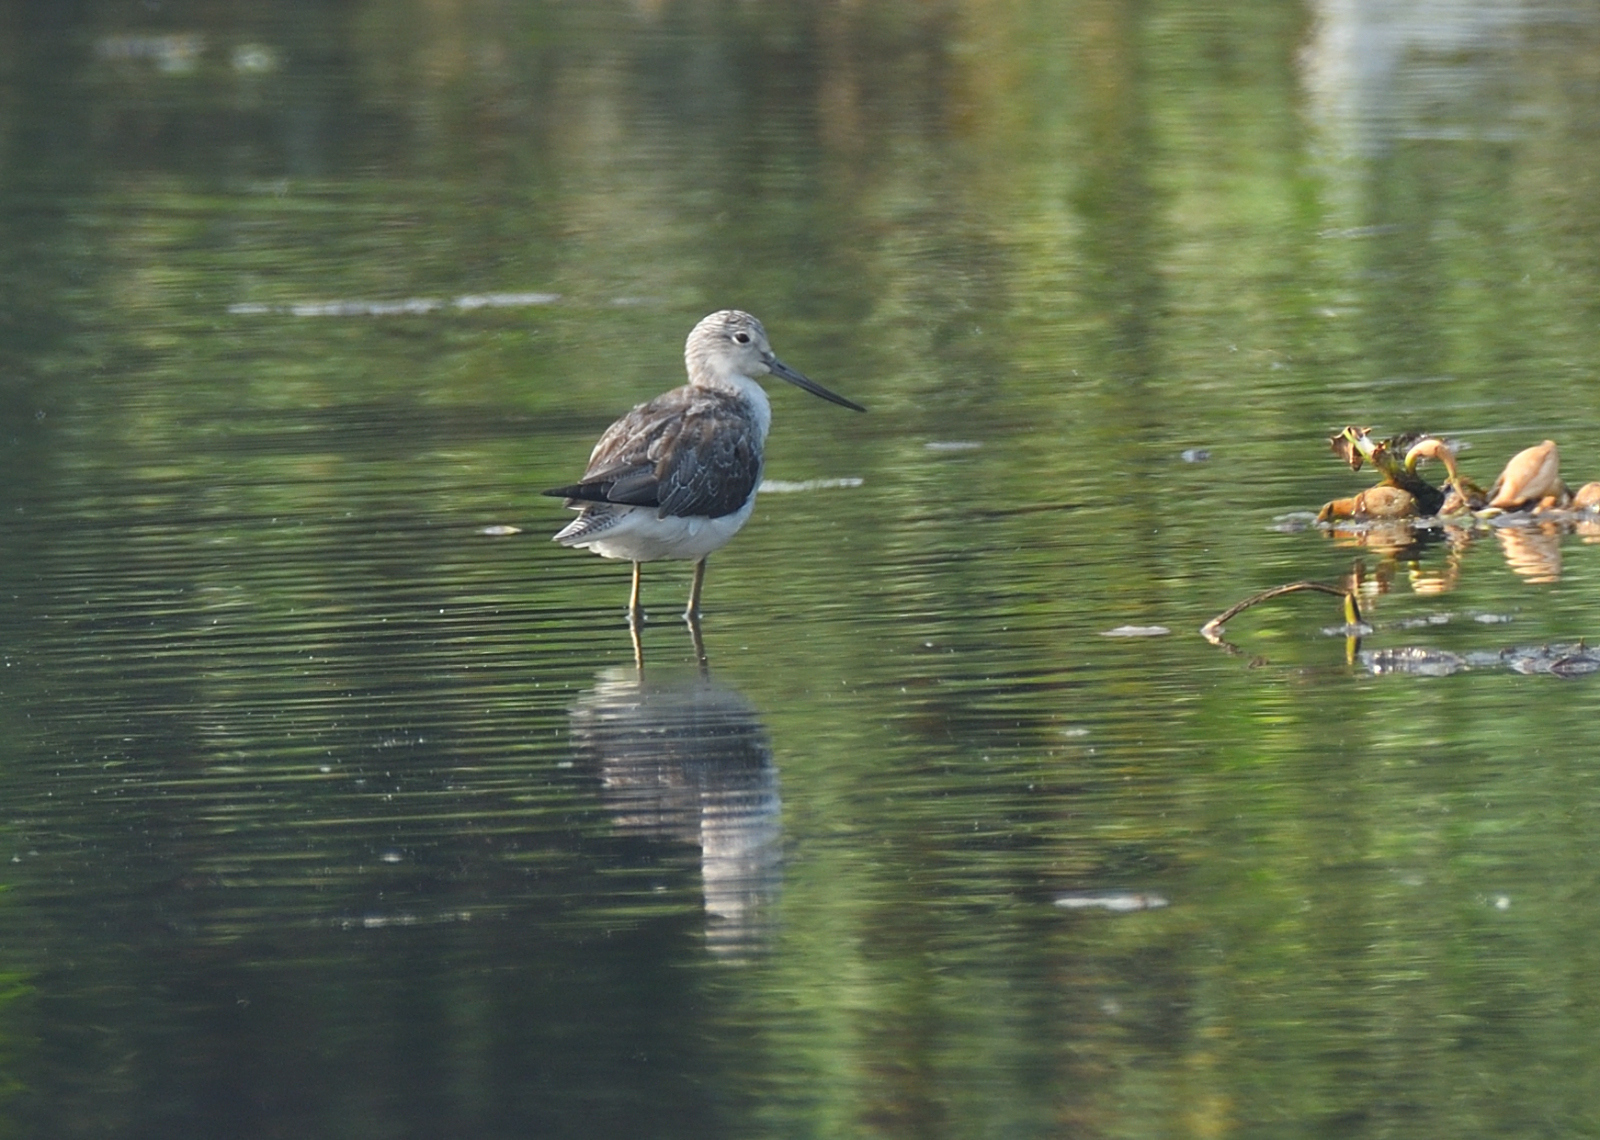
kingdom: Animalia
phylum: Chordata
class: Aves
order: Charadriiformes
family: Scolopacidae
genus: Tringa
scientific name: Tringa nebularia
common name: Common greenshank
